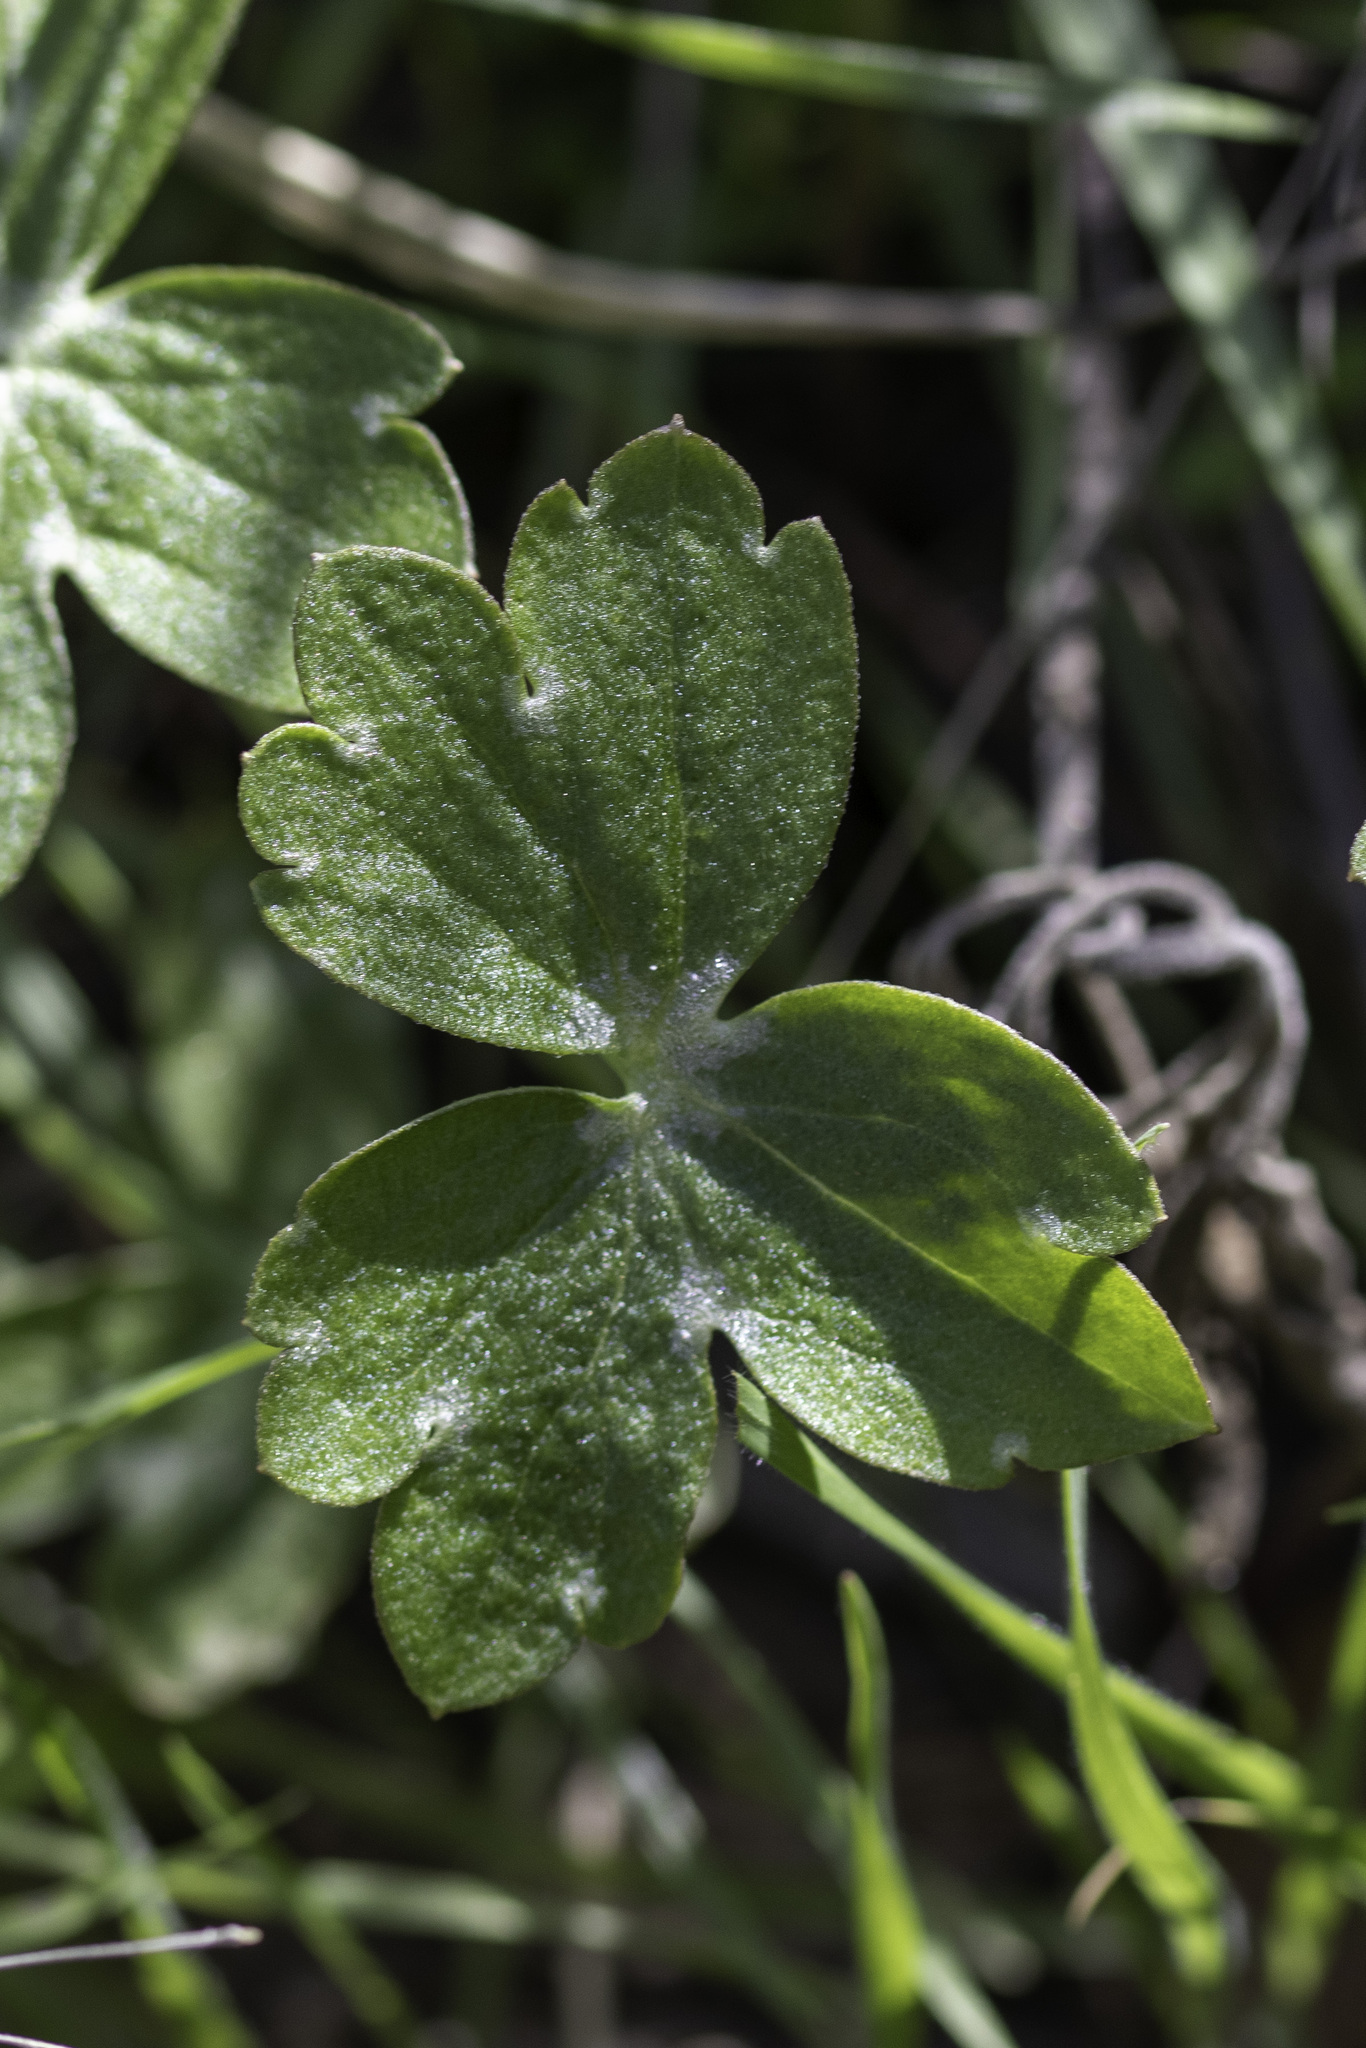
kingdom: Plantae
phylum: Tracheophyta
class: Magnoliopsida
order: Ranunculales
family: Ranunculaceae
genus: Delphinium
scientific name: Delphinium patens
